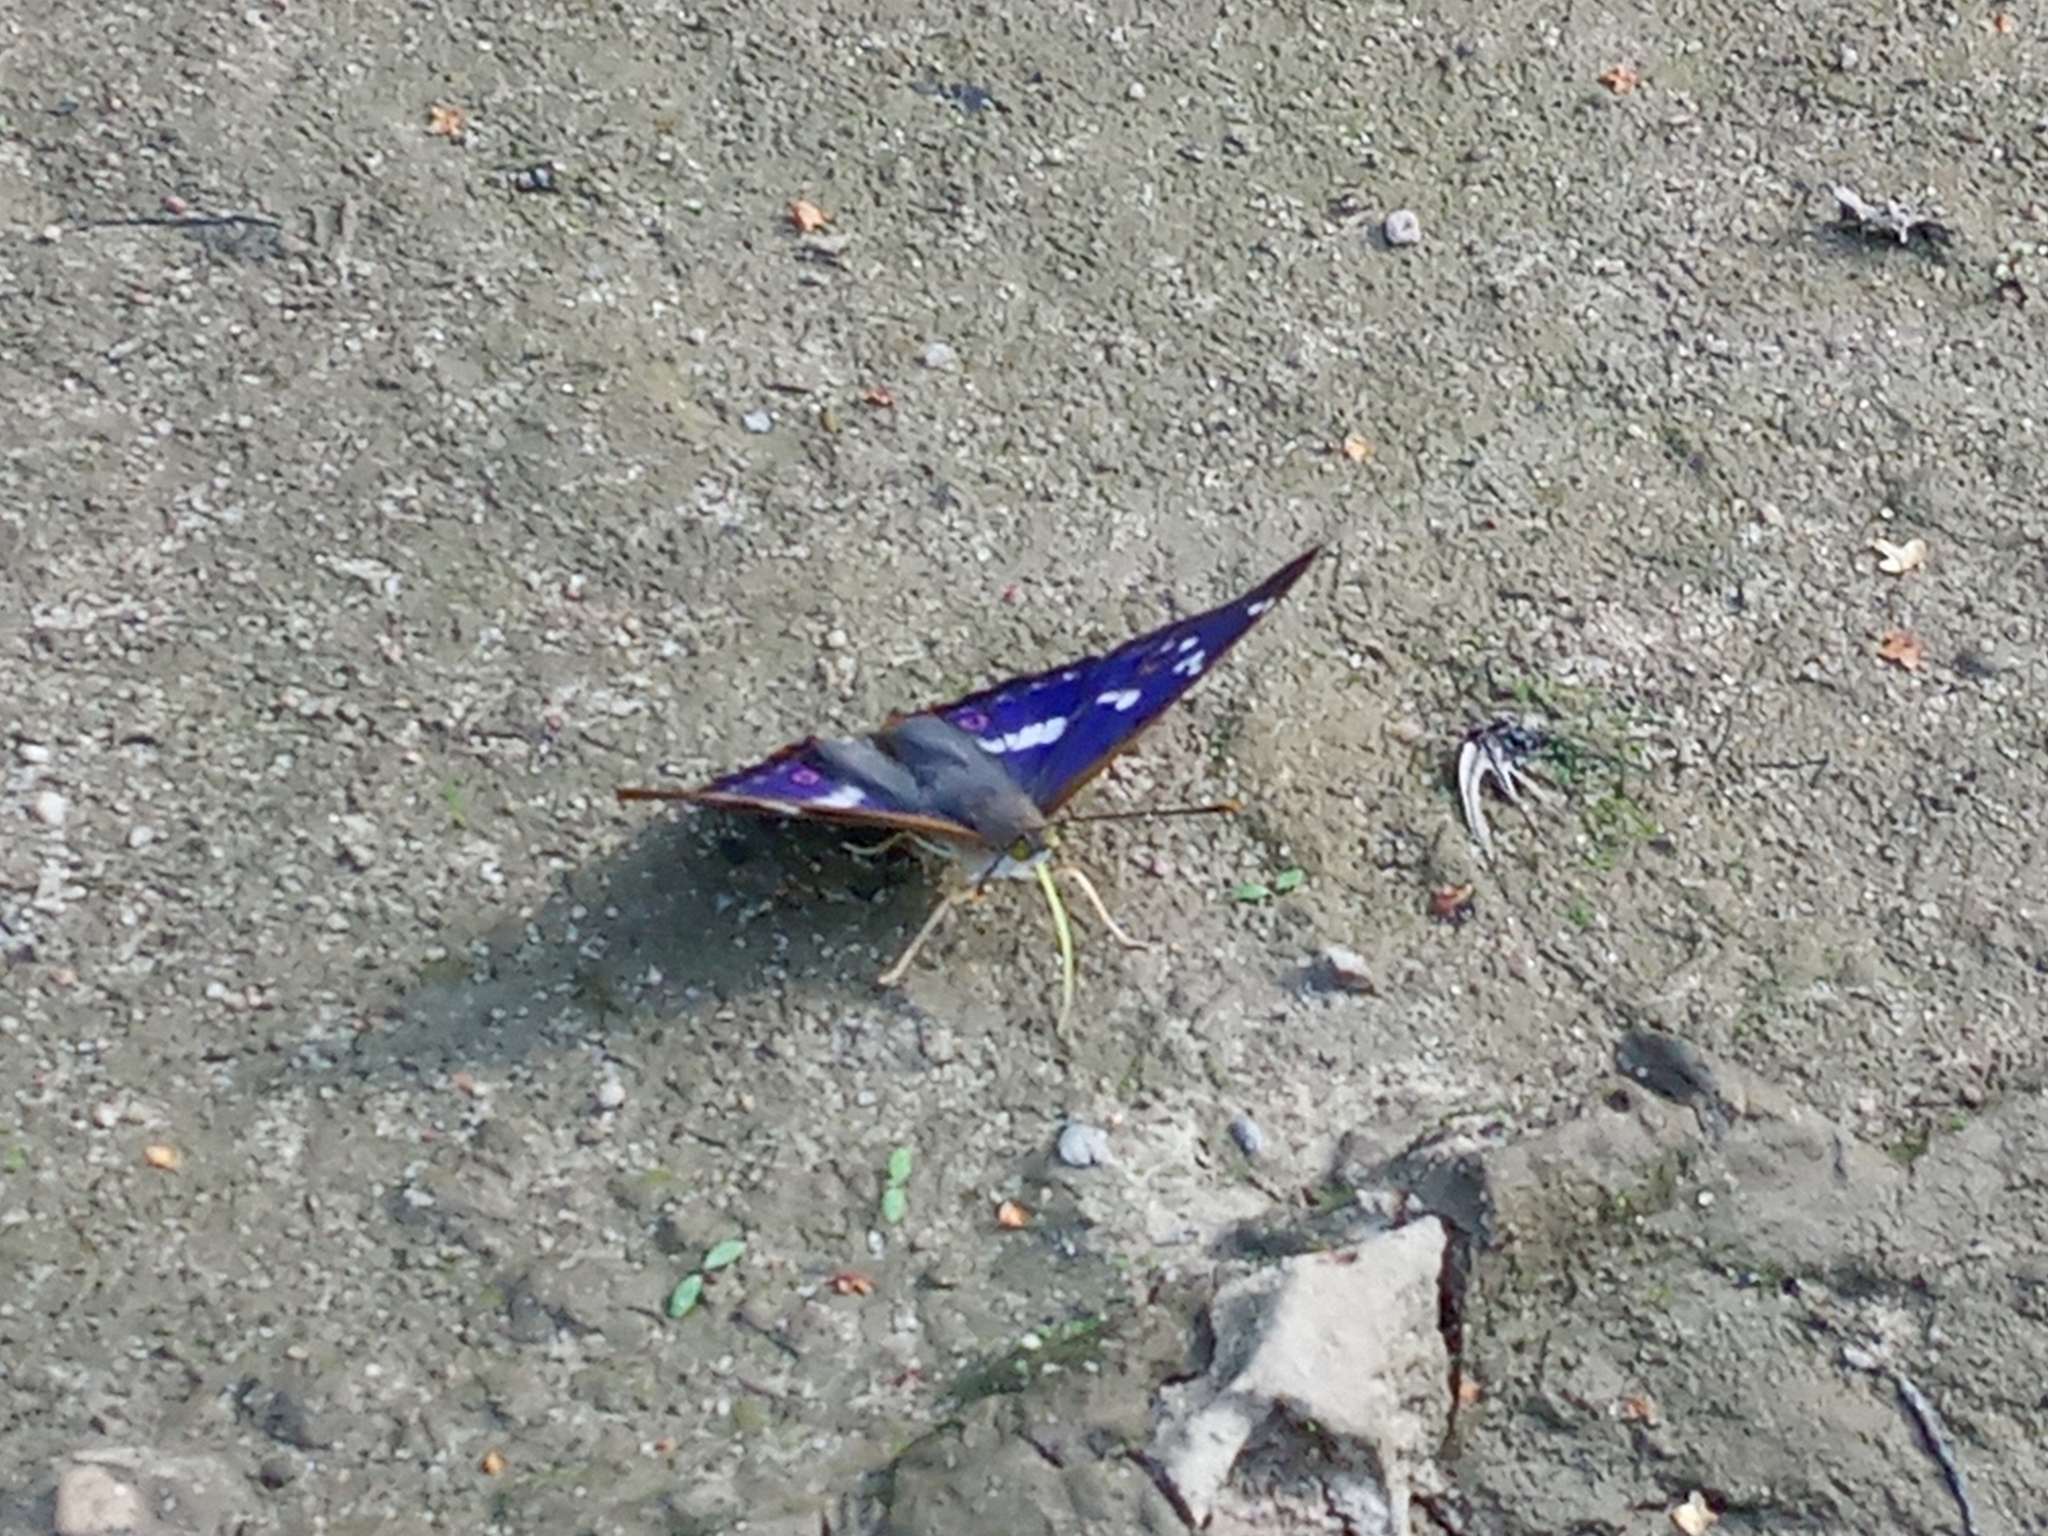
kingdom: Animalia
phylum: Arthropoda
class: Insecta
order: Lepidoptera
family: Nymphalidae
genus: Apatura
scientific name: Apatura ilia
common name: Lesser purple emperor
